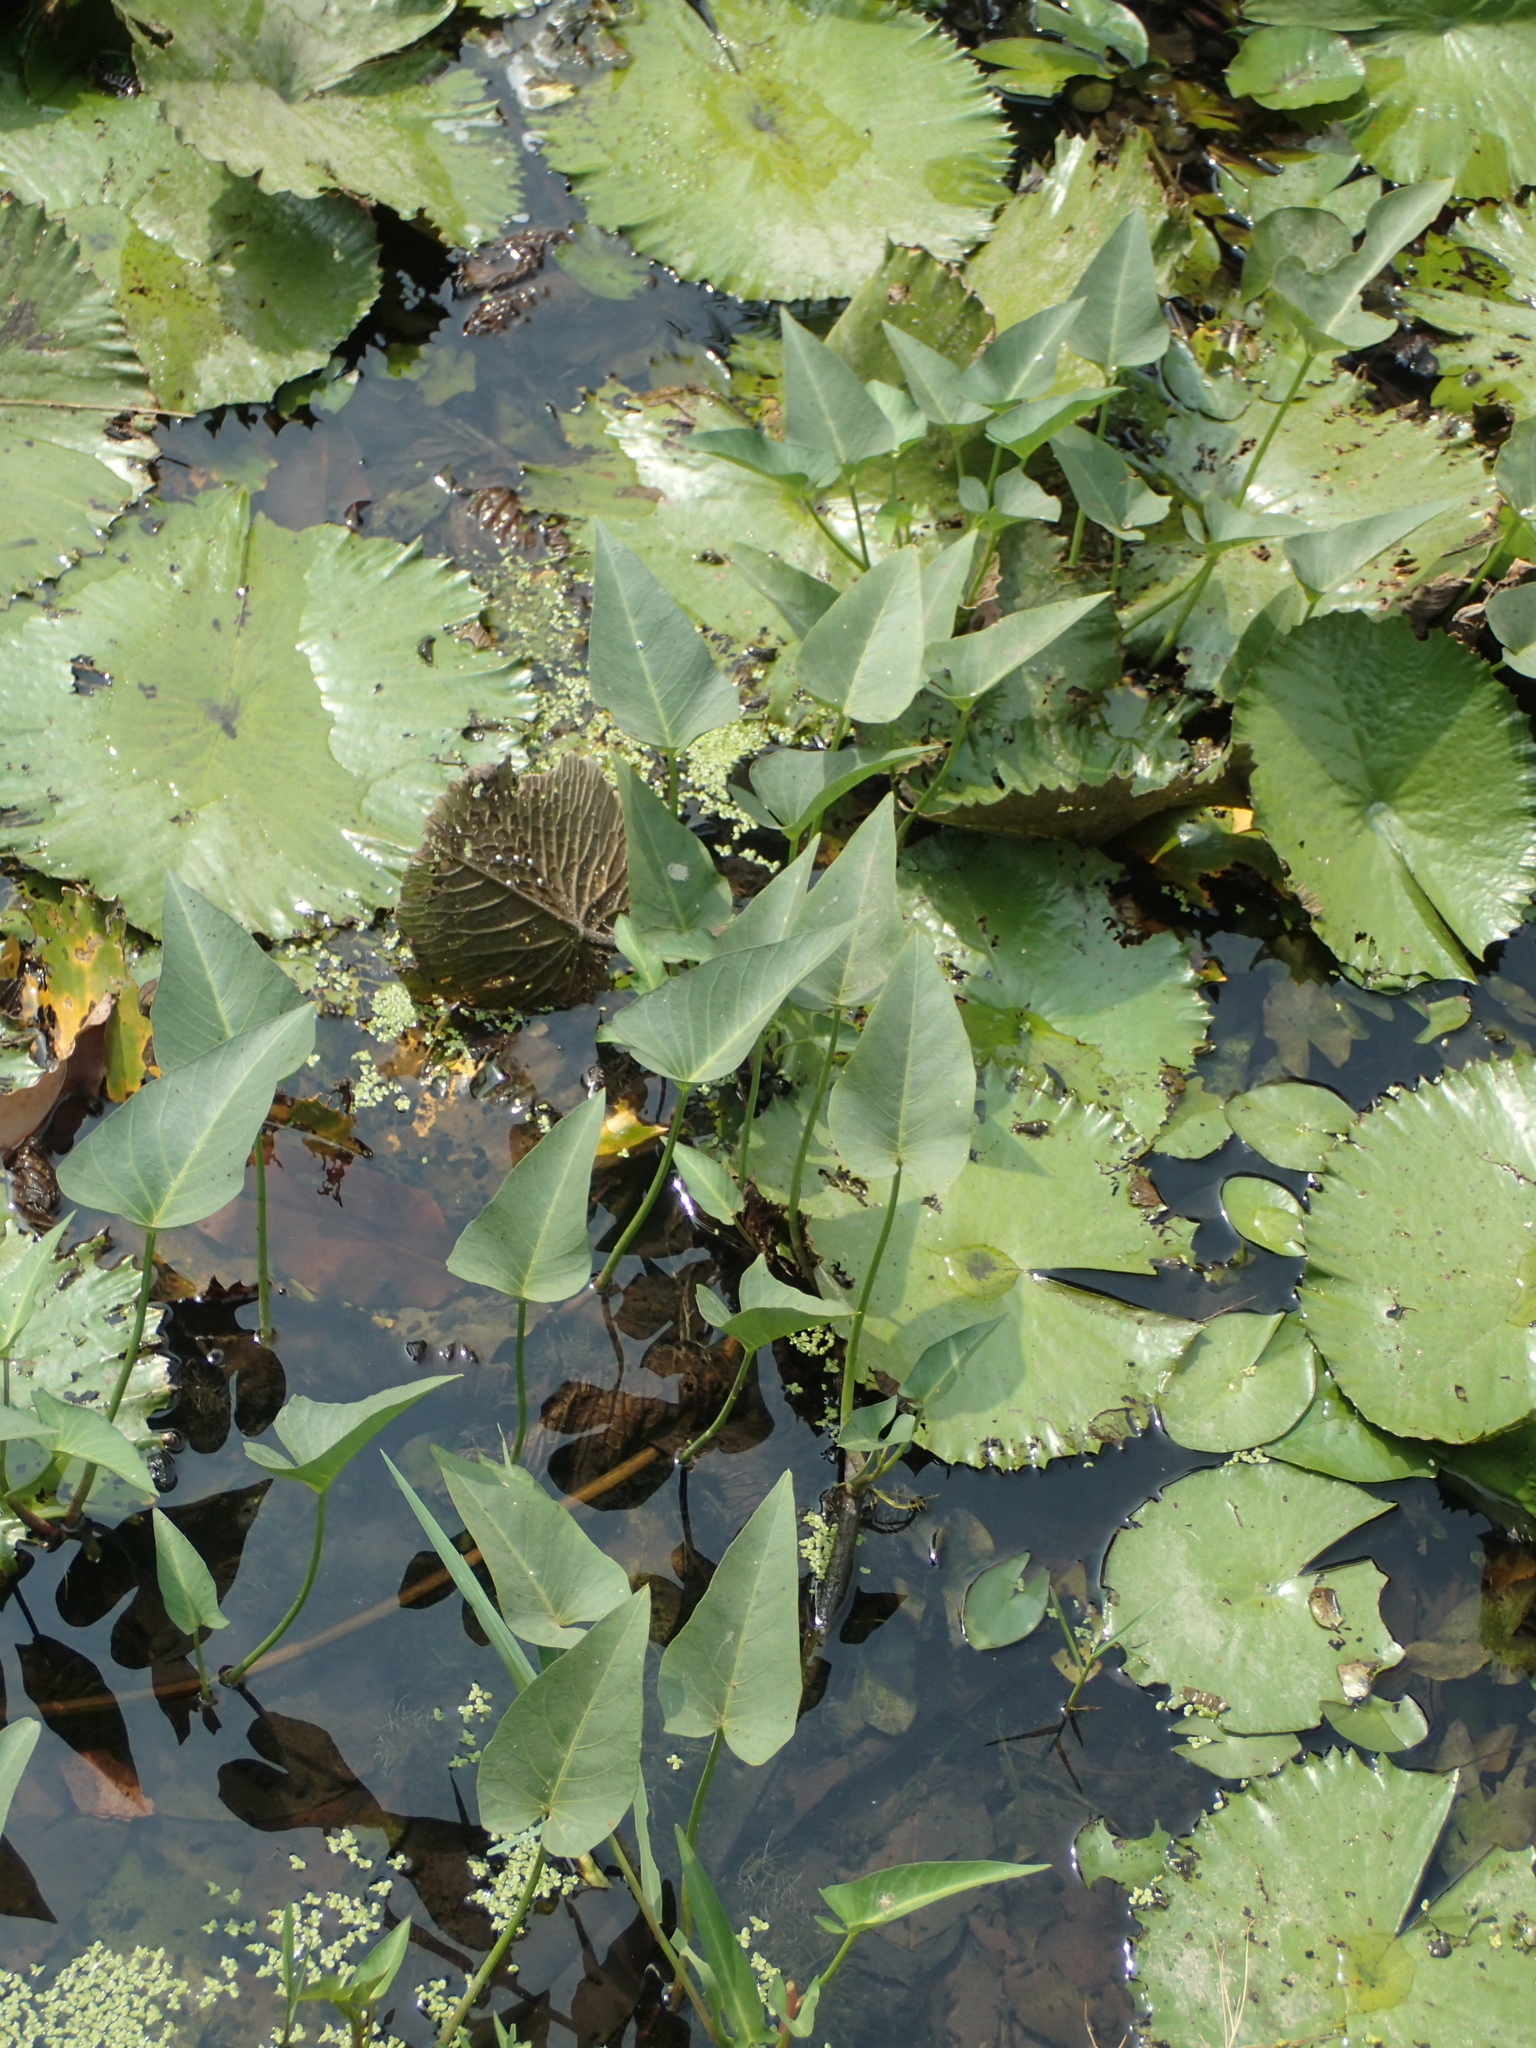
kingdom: Plantae
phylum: Tracheophyta
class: Magnoliopsida
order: Solanales
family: Convolvulaceae
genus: Ipomoea
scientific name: Ipomoea aquatica
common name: Swamp morning-glory
